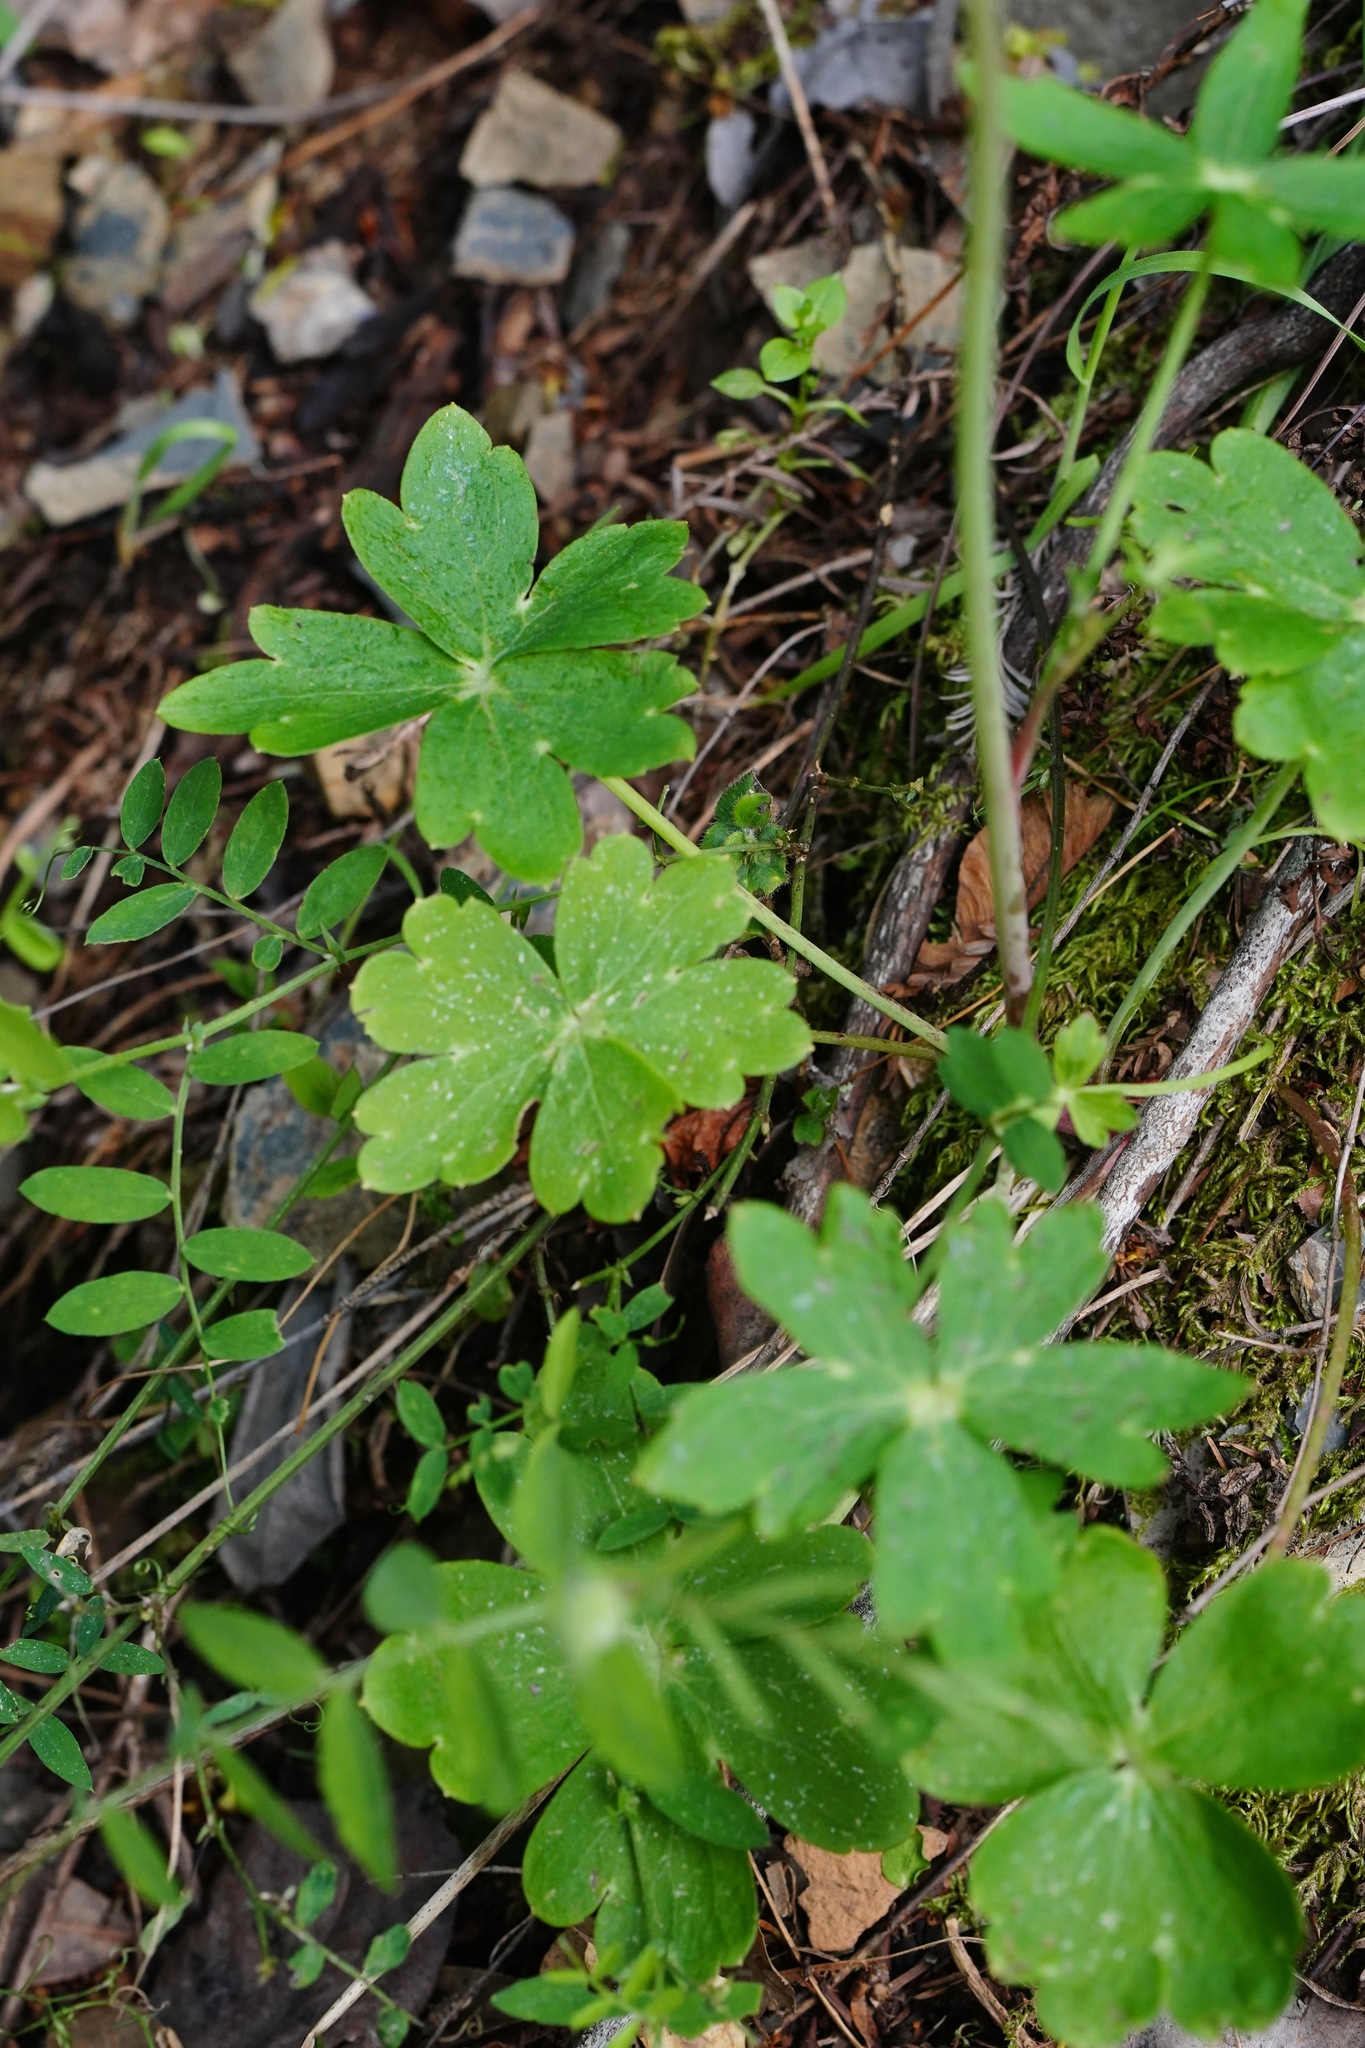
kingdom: Plantae
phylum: Tracheophyta
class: Magnoliopsida
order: Ranunculales
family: Ranunculaceae
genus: Delphinium
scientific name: Delphinium nudicaule
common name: Red larkspur
